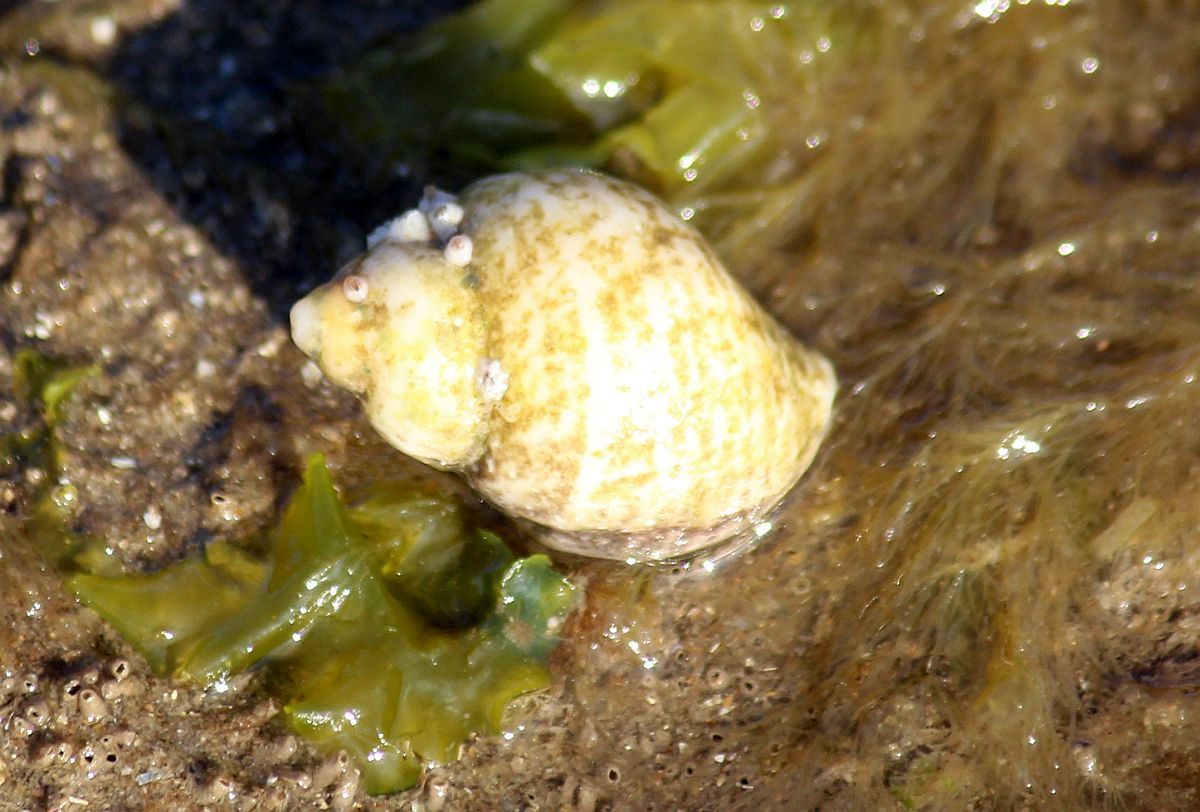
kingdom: Animalia
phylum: Mollusca
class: Gastropoda
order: Neogastropoda
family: Muricidae
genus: Nucella
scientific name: Nucella lapillus
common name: Dog whelk
